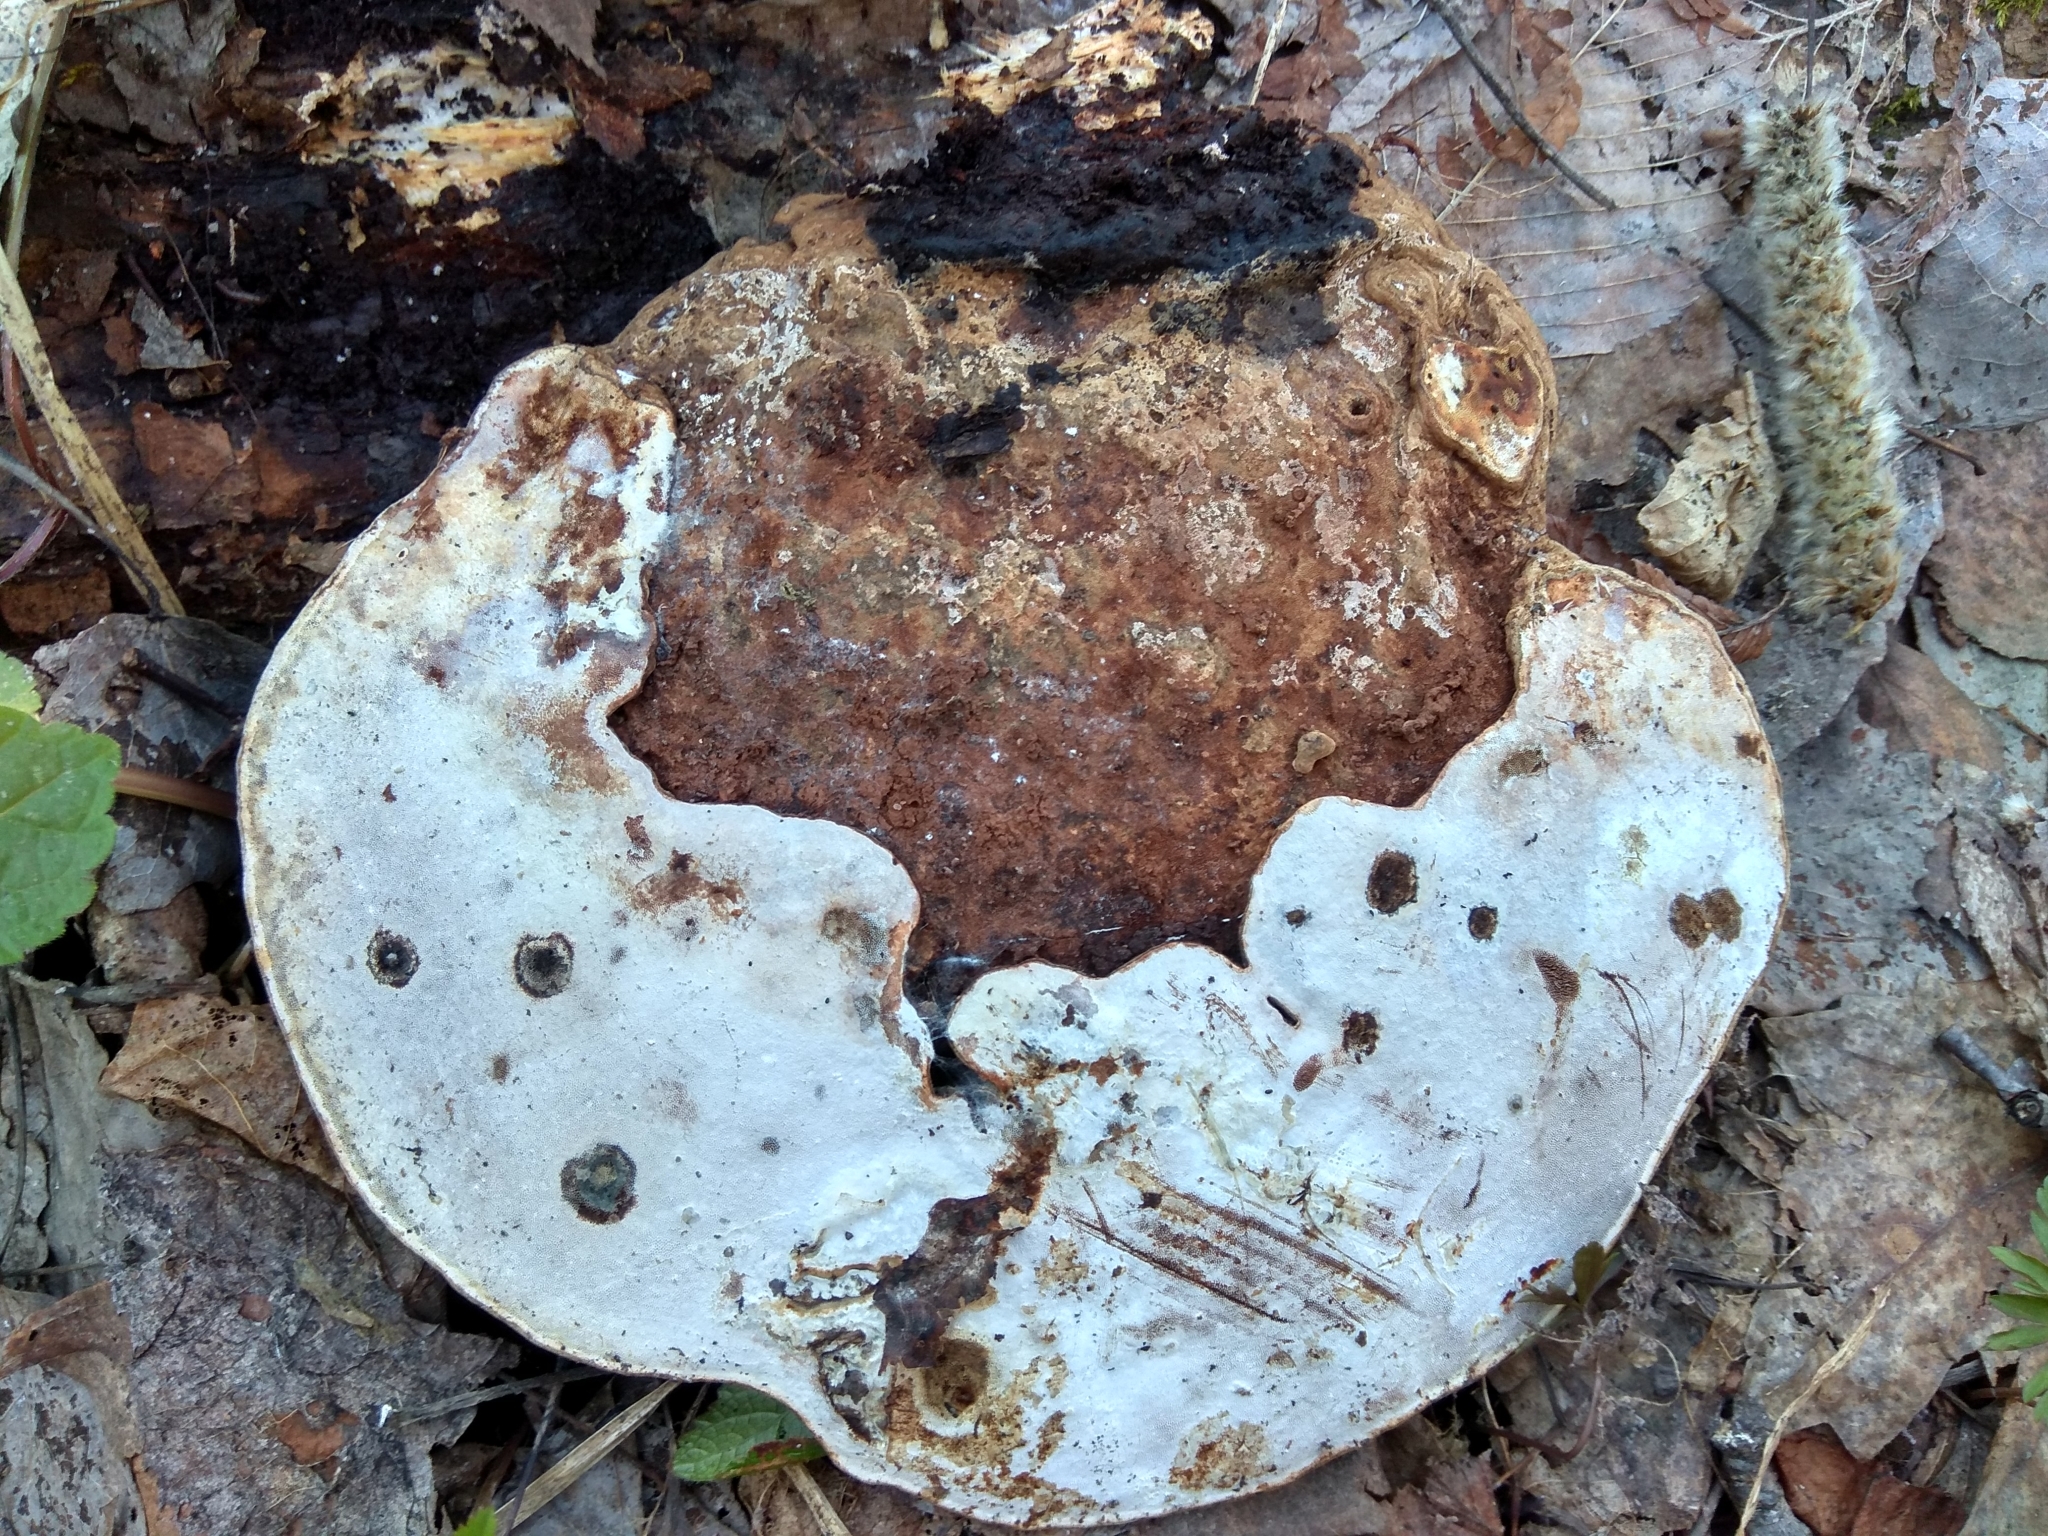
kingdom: Fungi
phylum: Basidiomycota
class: Agaricomycetes
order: Polyporales
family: Polyporaceae
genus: Ganoderma
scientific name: Ganoderma applanatum
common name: Artist's bracket
